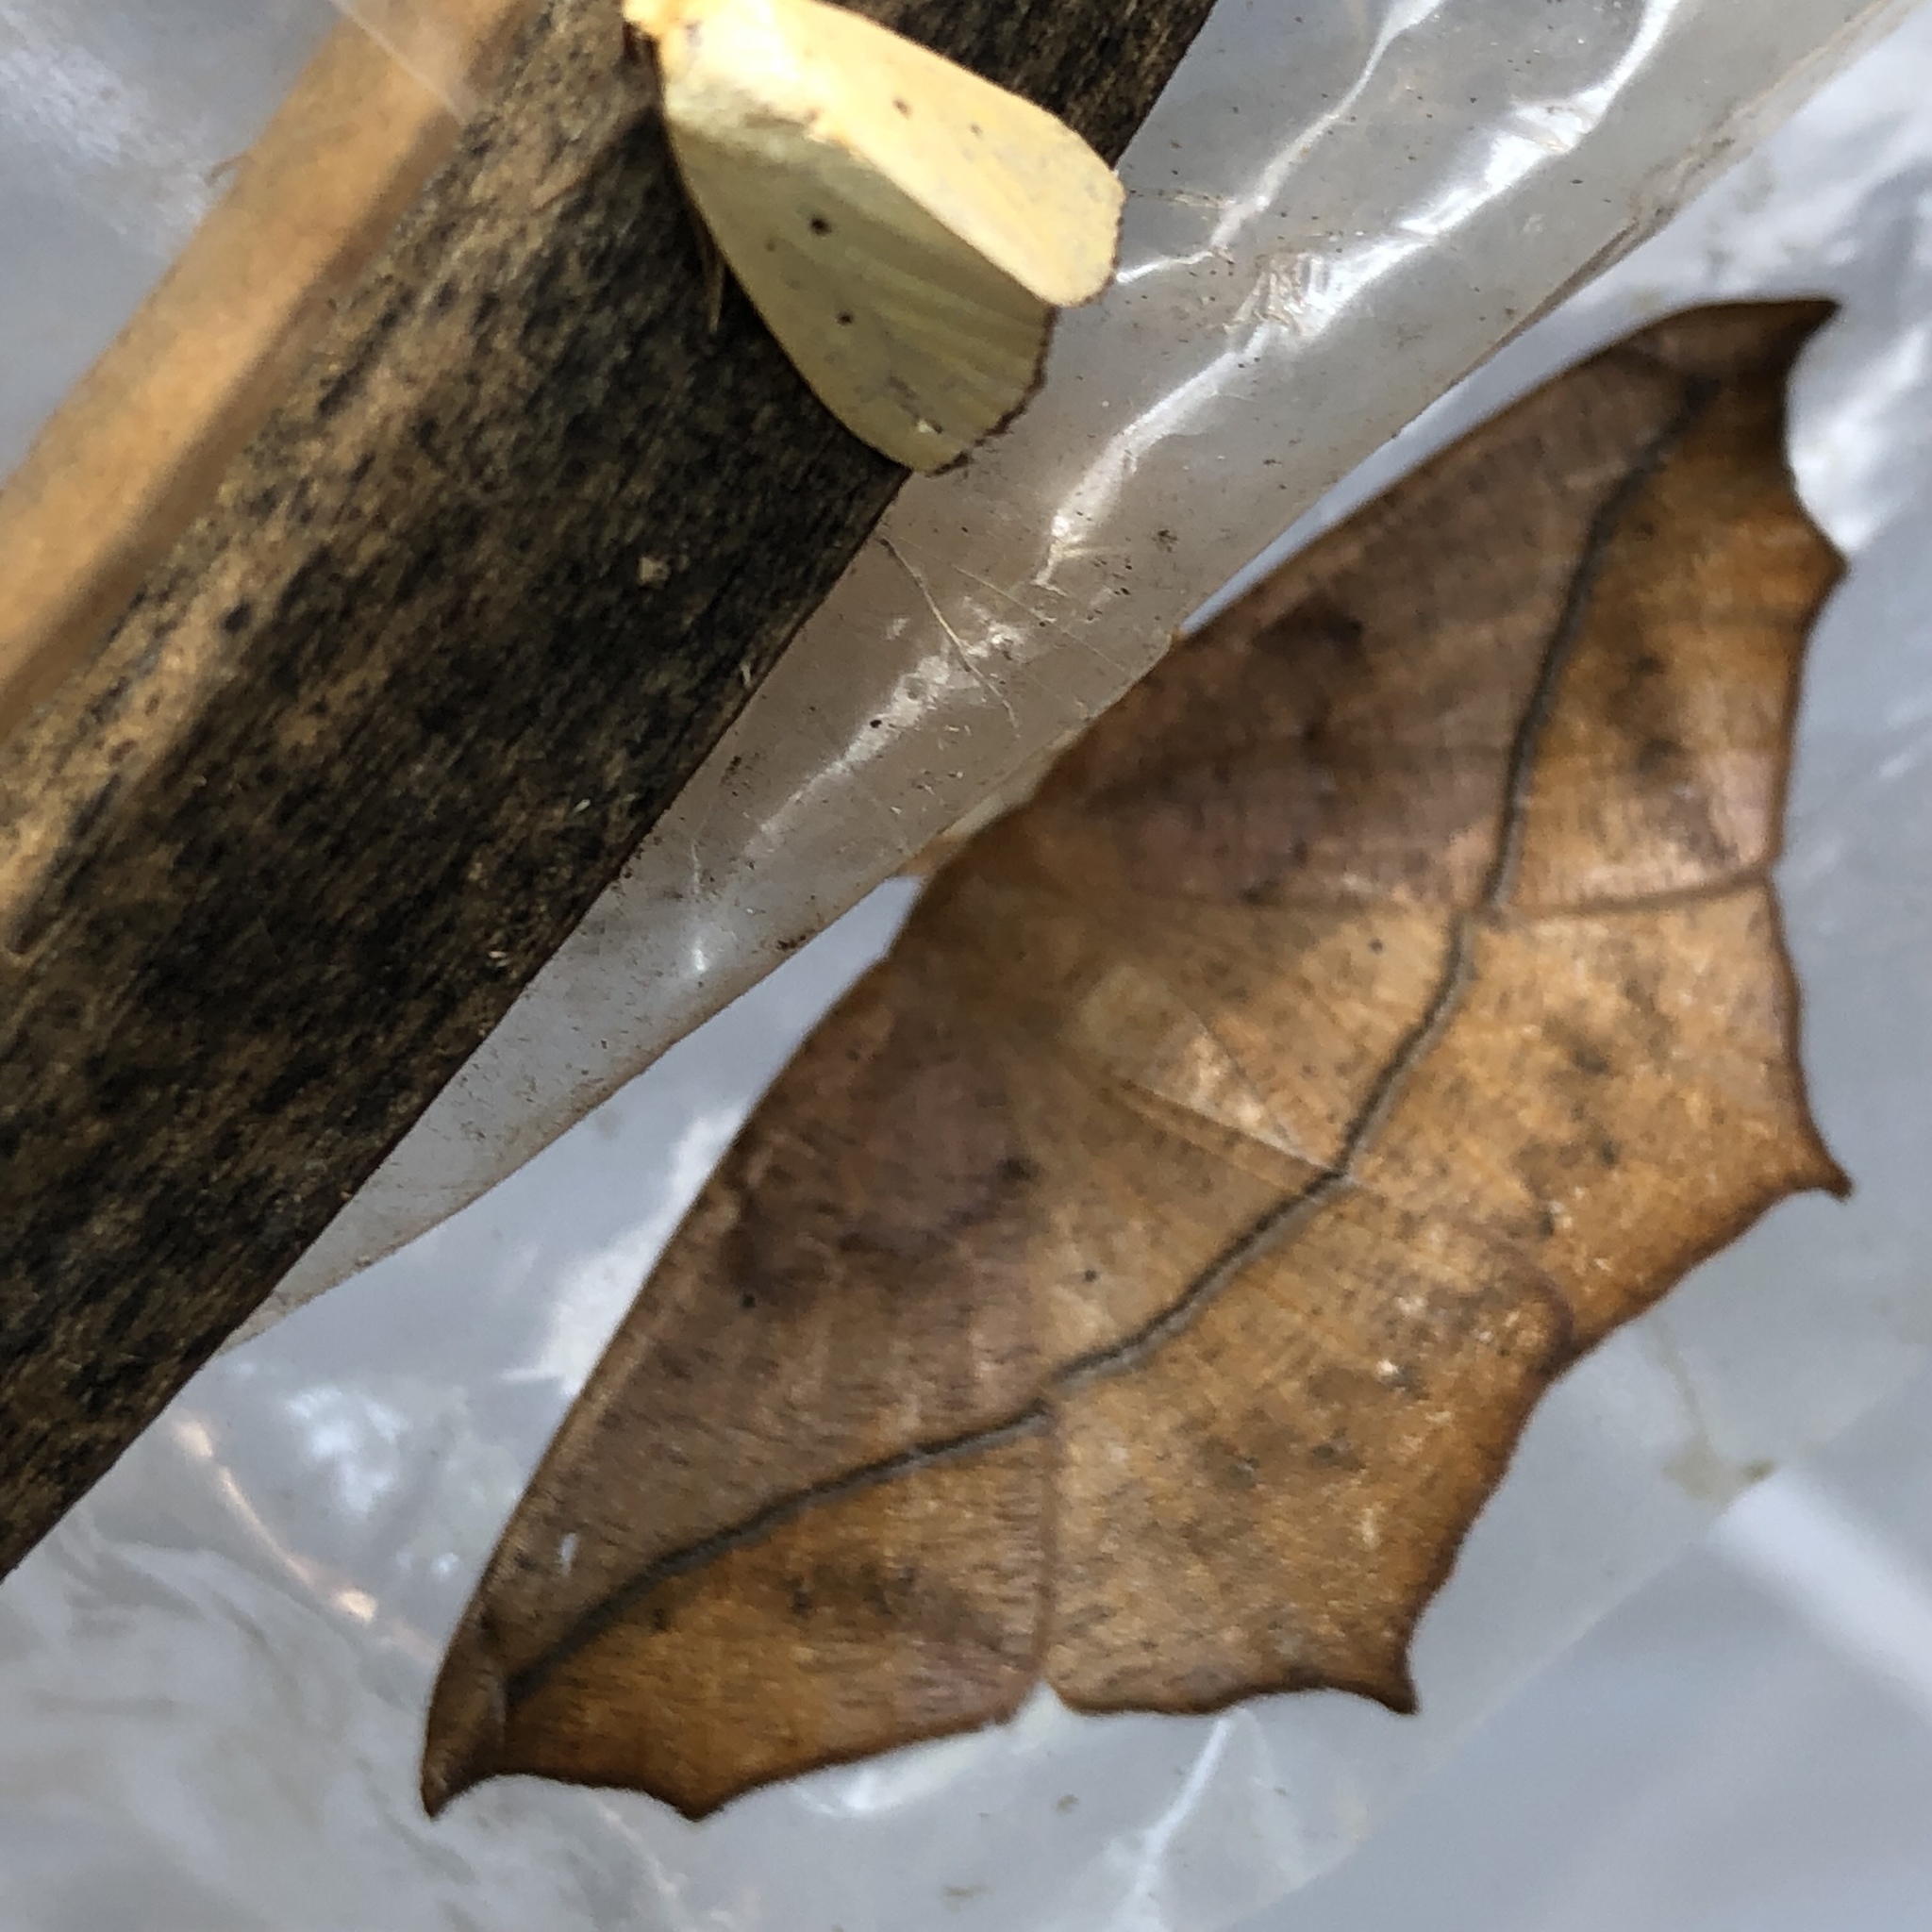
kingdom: Animalia
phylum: Arthropoda
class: Insecta
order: Lepidoptera
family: Geometridae
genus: Prochoerodes
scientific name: Prochoerodes lineola
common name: Large maple spanworm
